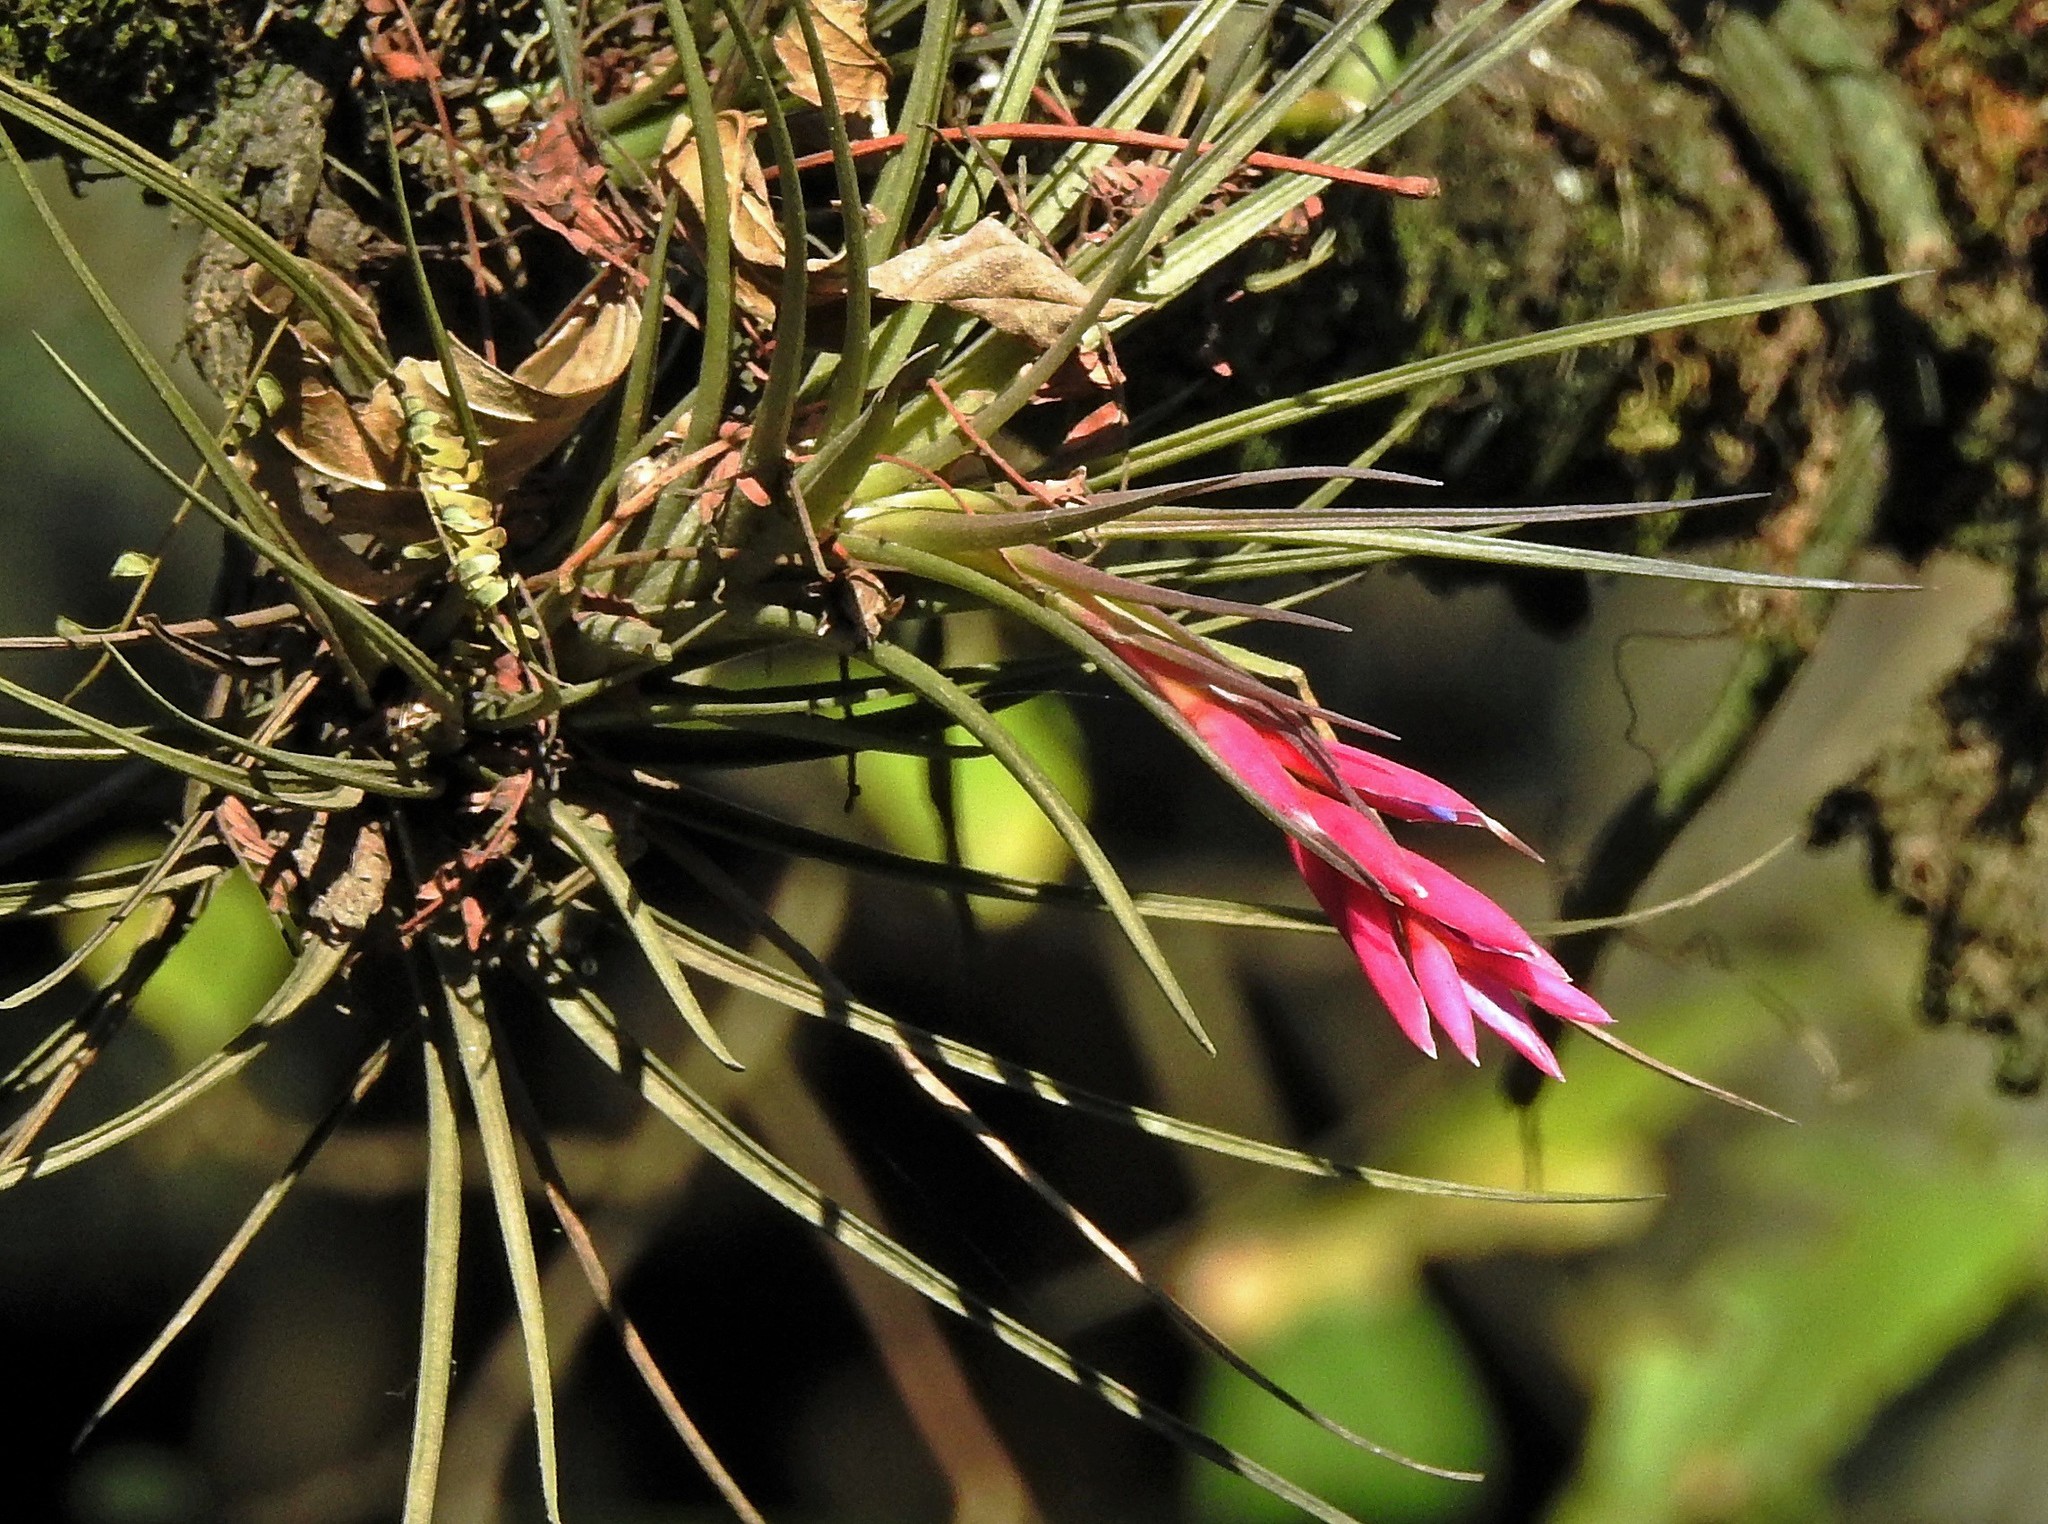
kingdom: Plantae
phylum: Tracheophyta
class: Liliopsida
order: Poales
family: Bromeliaceae
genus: Tillandsia
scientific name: Tillandsia tenuifolia
